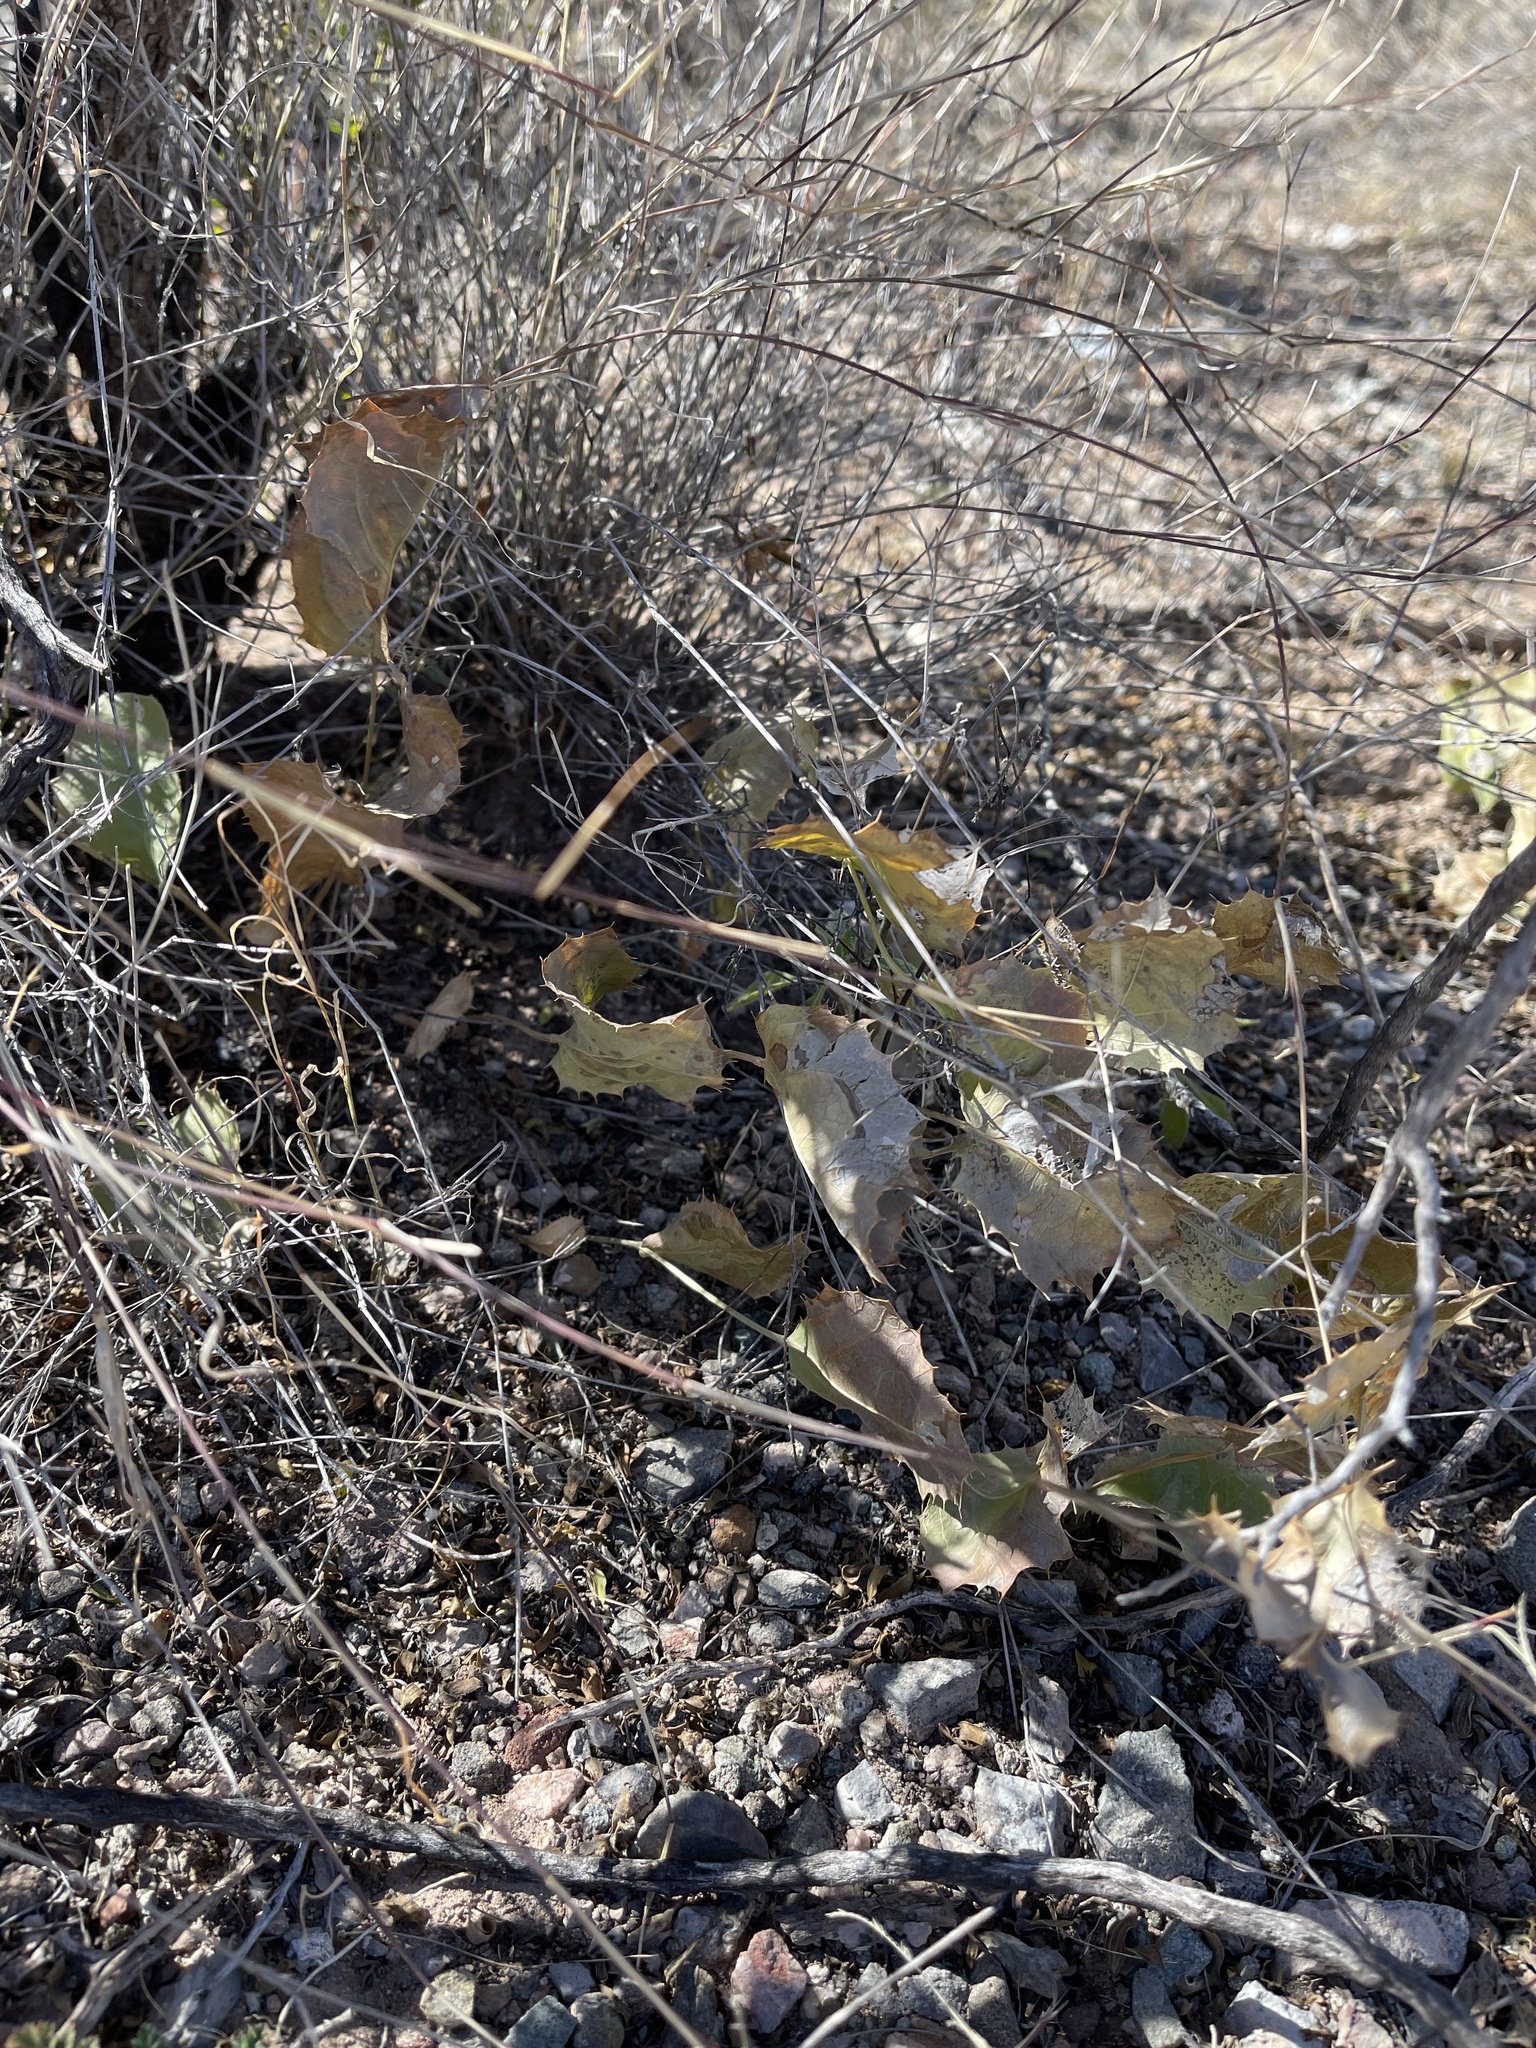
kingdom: Plantae
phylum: Tracheophyta
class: Magnoliopsida
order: Asterales
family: Asteraceae
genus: Acourtia
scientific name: Acourtia nana
